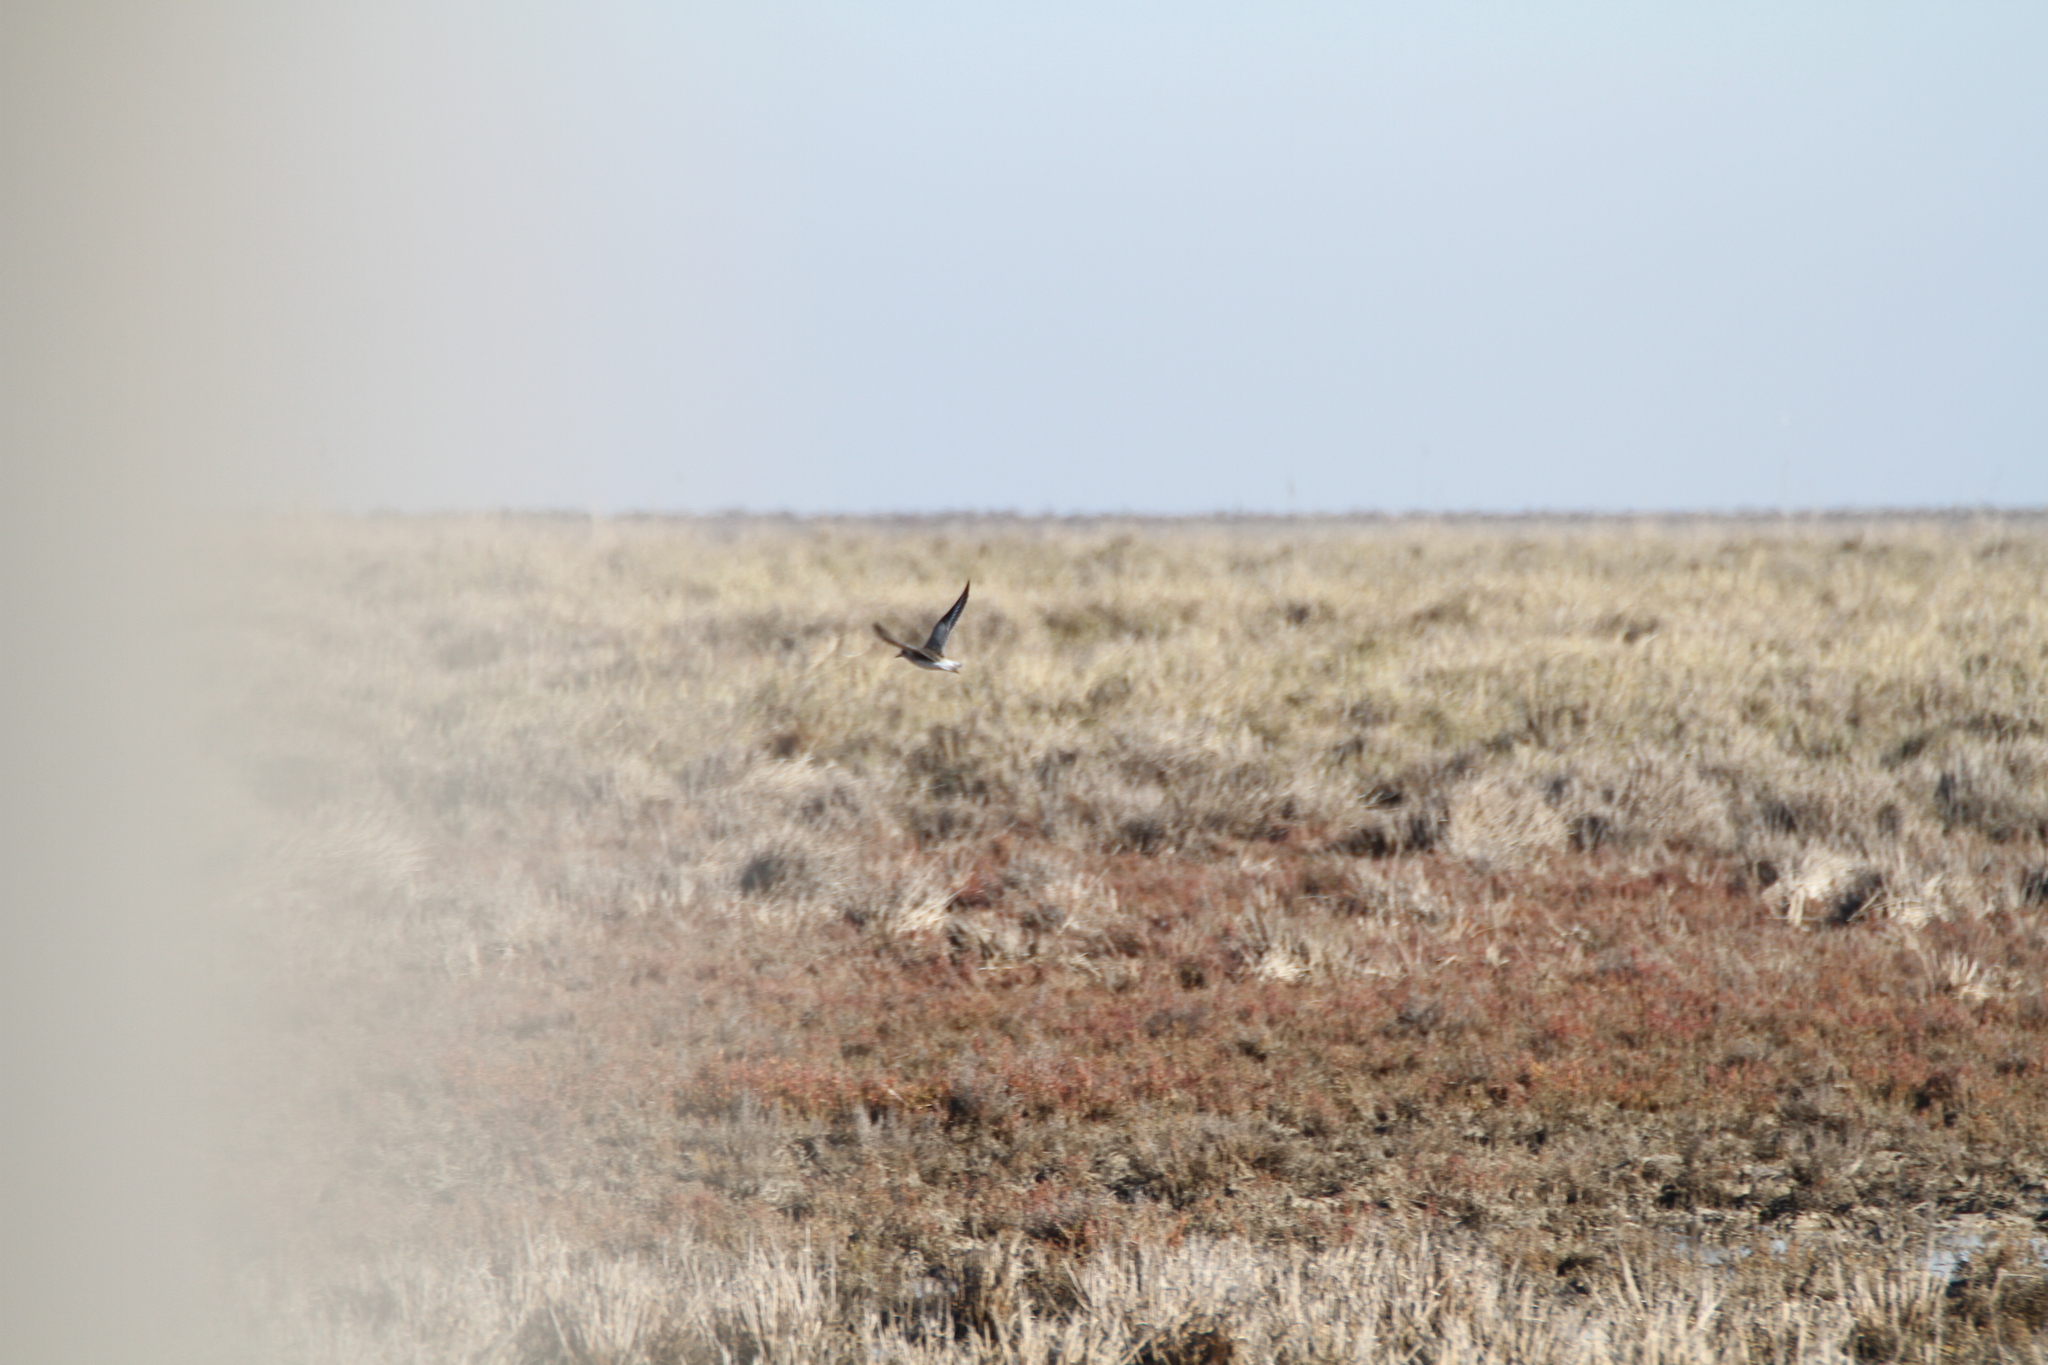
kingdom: Animalia
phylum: Chordata
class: Aves
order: Charadriiformes
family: Charadriidae
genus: Pluvialis
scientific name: Pluvialis squatarola
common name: Grey plover
